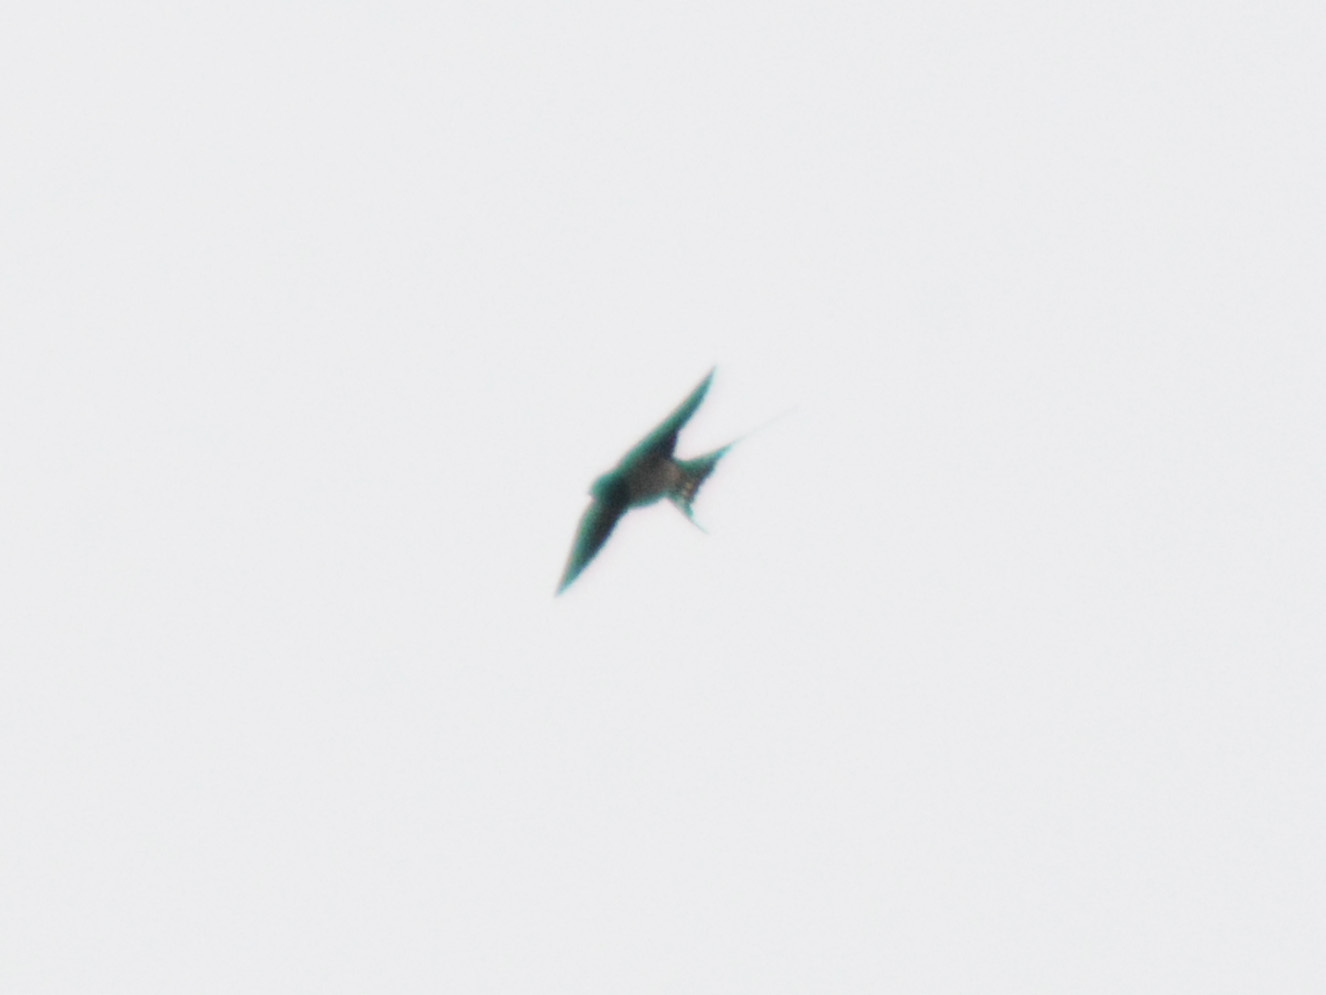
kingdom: Animalia
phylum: Chordata
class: Aves
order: Passeriformes
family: Hirundinidae
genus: Hirundo
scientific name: Hirundo rustica
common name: Barn swallow
